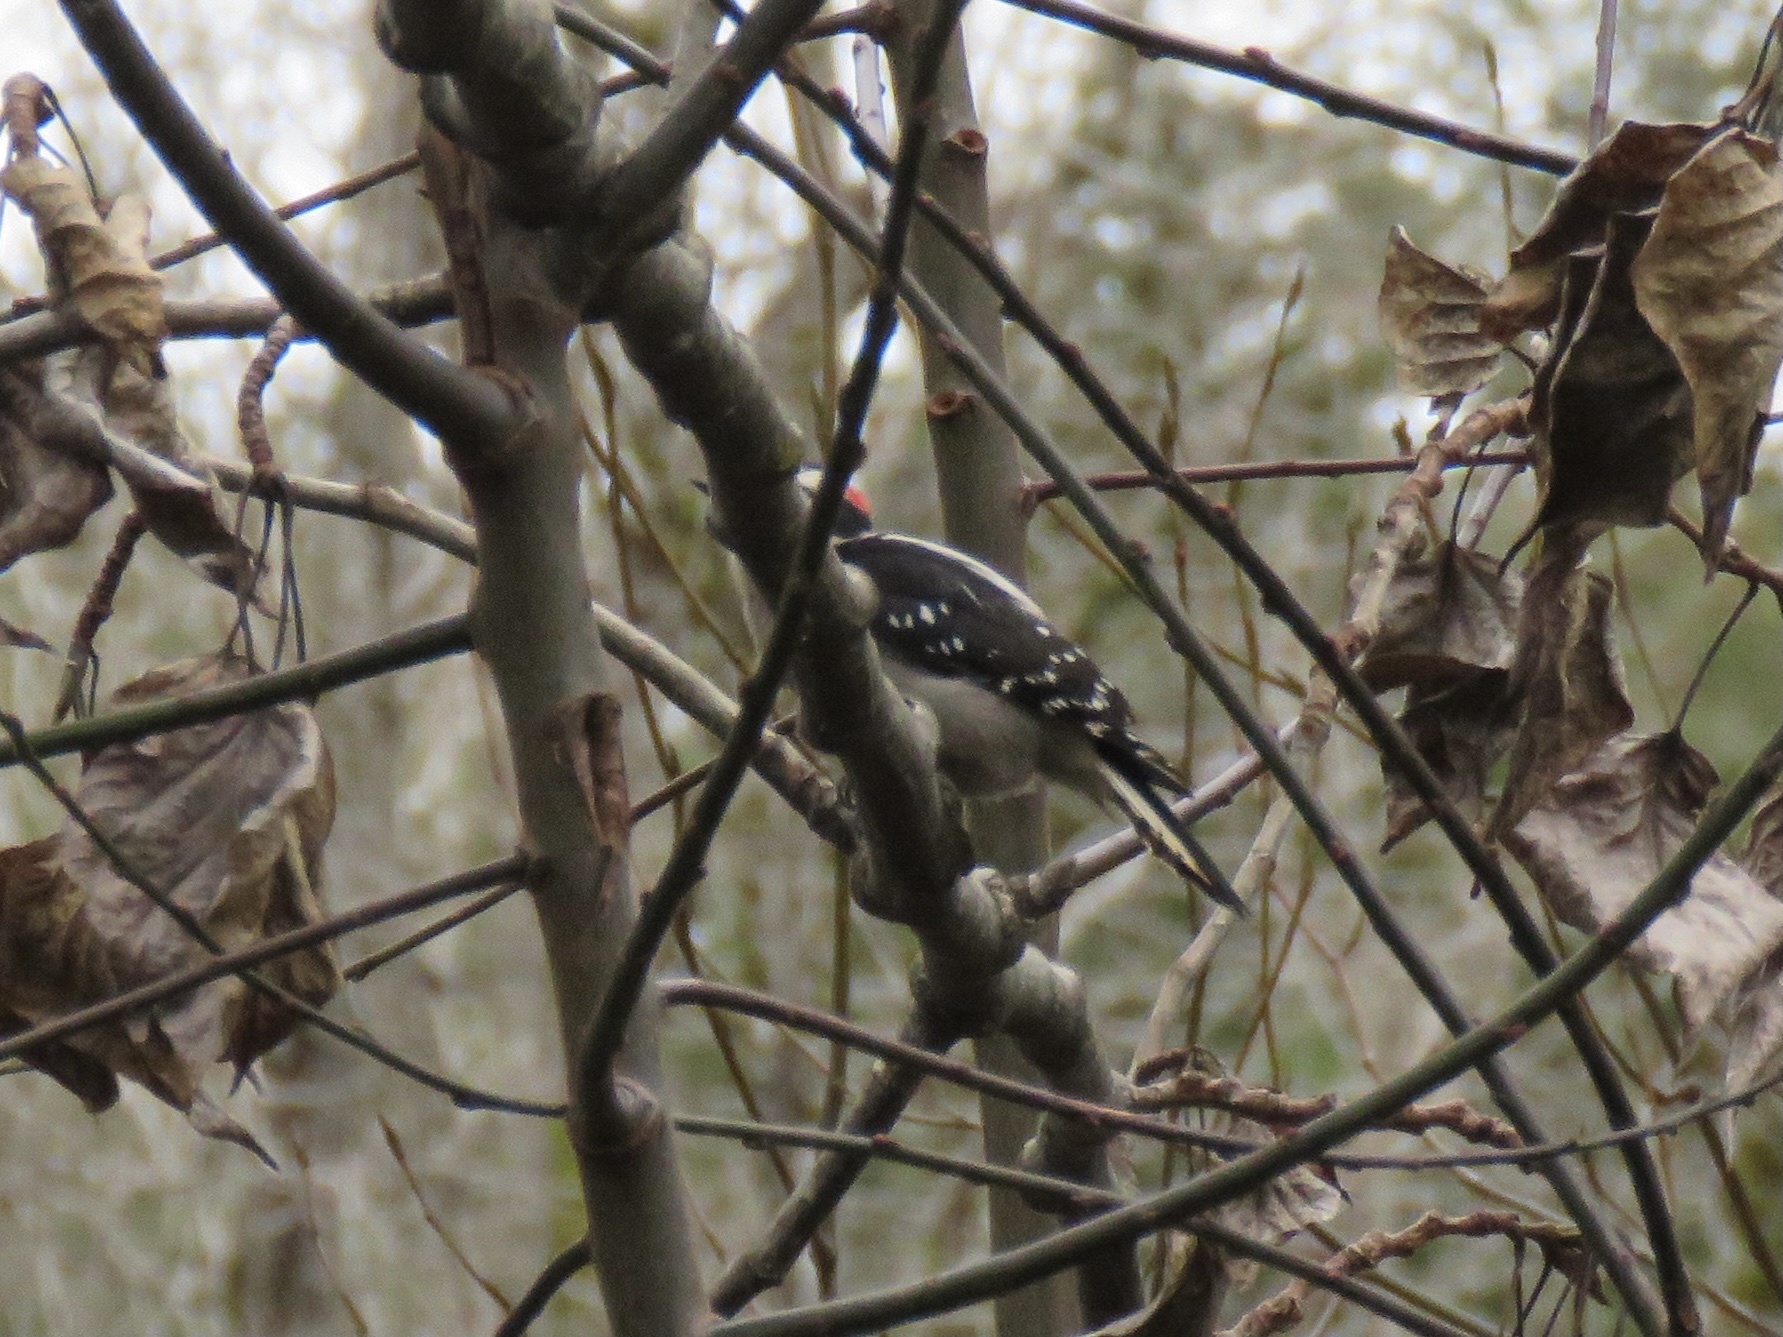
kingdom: Animalia
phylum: Chordata
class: Aves
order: Piciformes
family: Picidae
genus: Dryobates
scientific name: Dryobates pubescens
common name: Downy woodpecker
